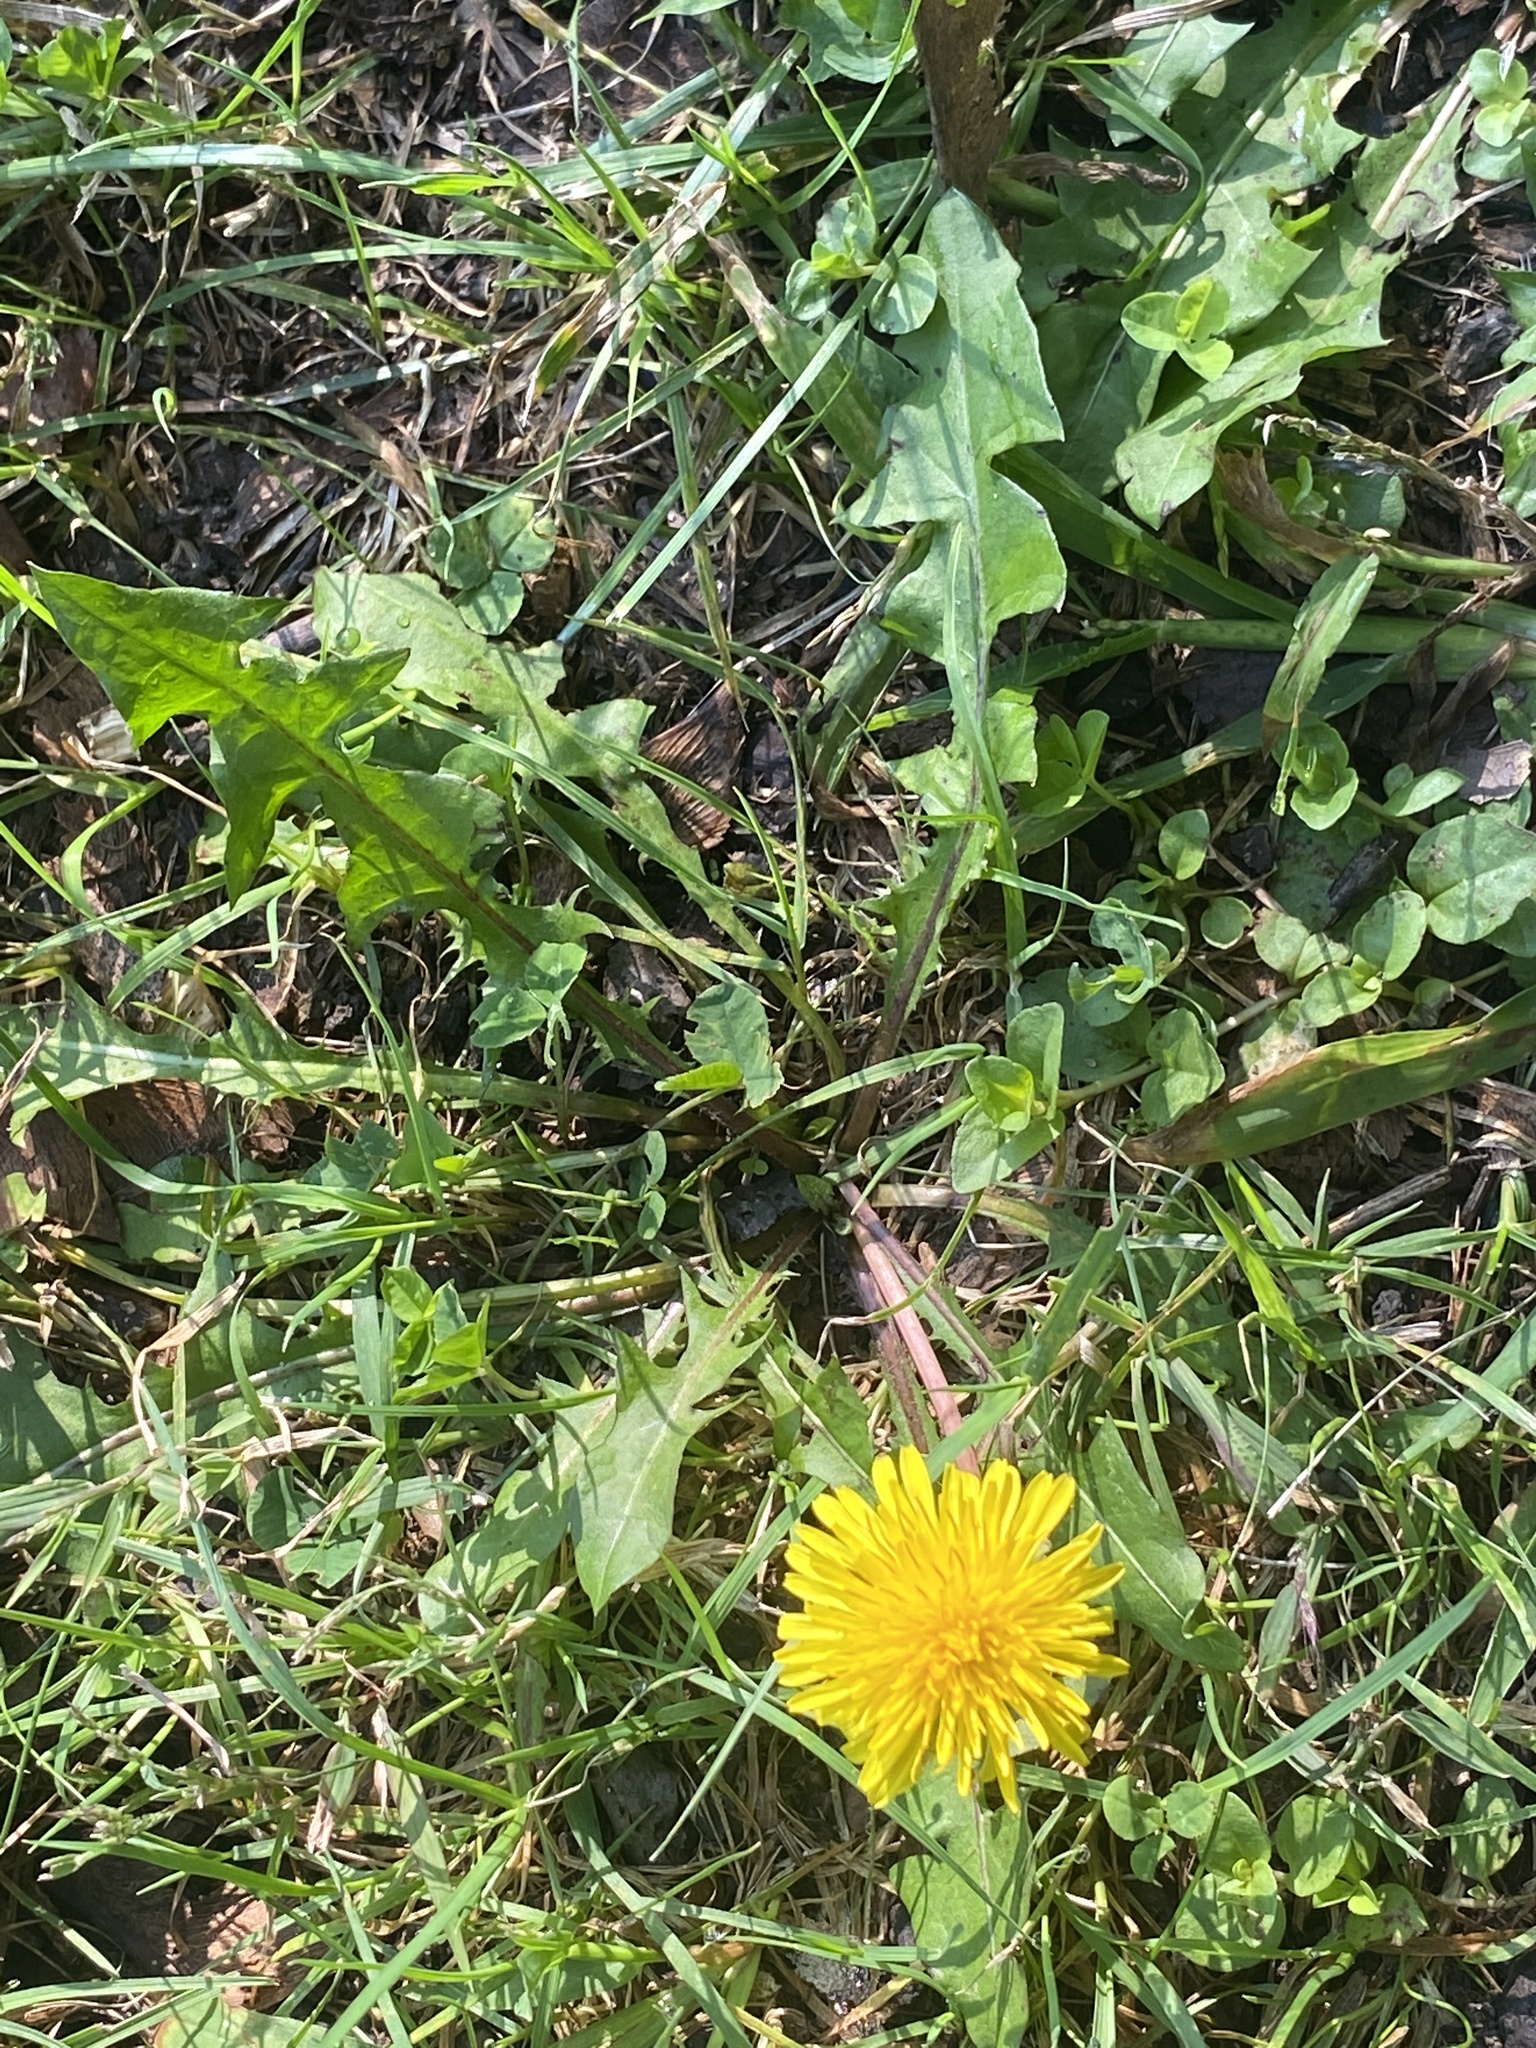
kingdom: Plantae
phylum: Tracheophyta
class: Magnoliopsida
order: Asterales
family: Asteraceae
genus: Taraxacum
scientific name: Taraxacum
